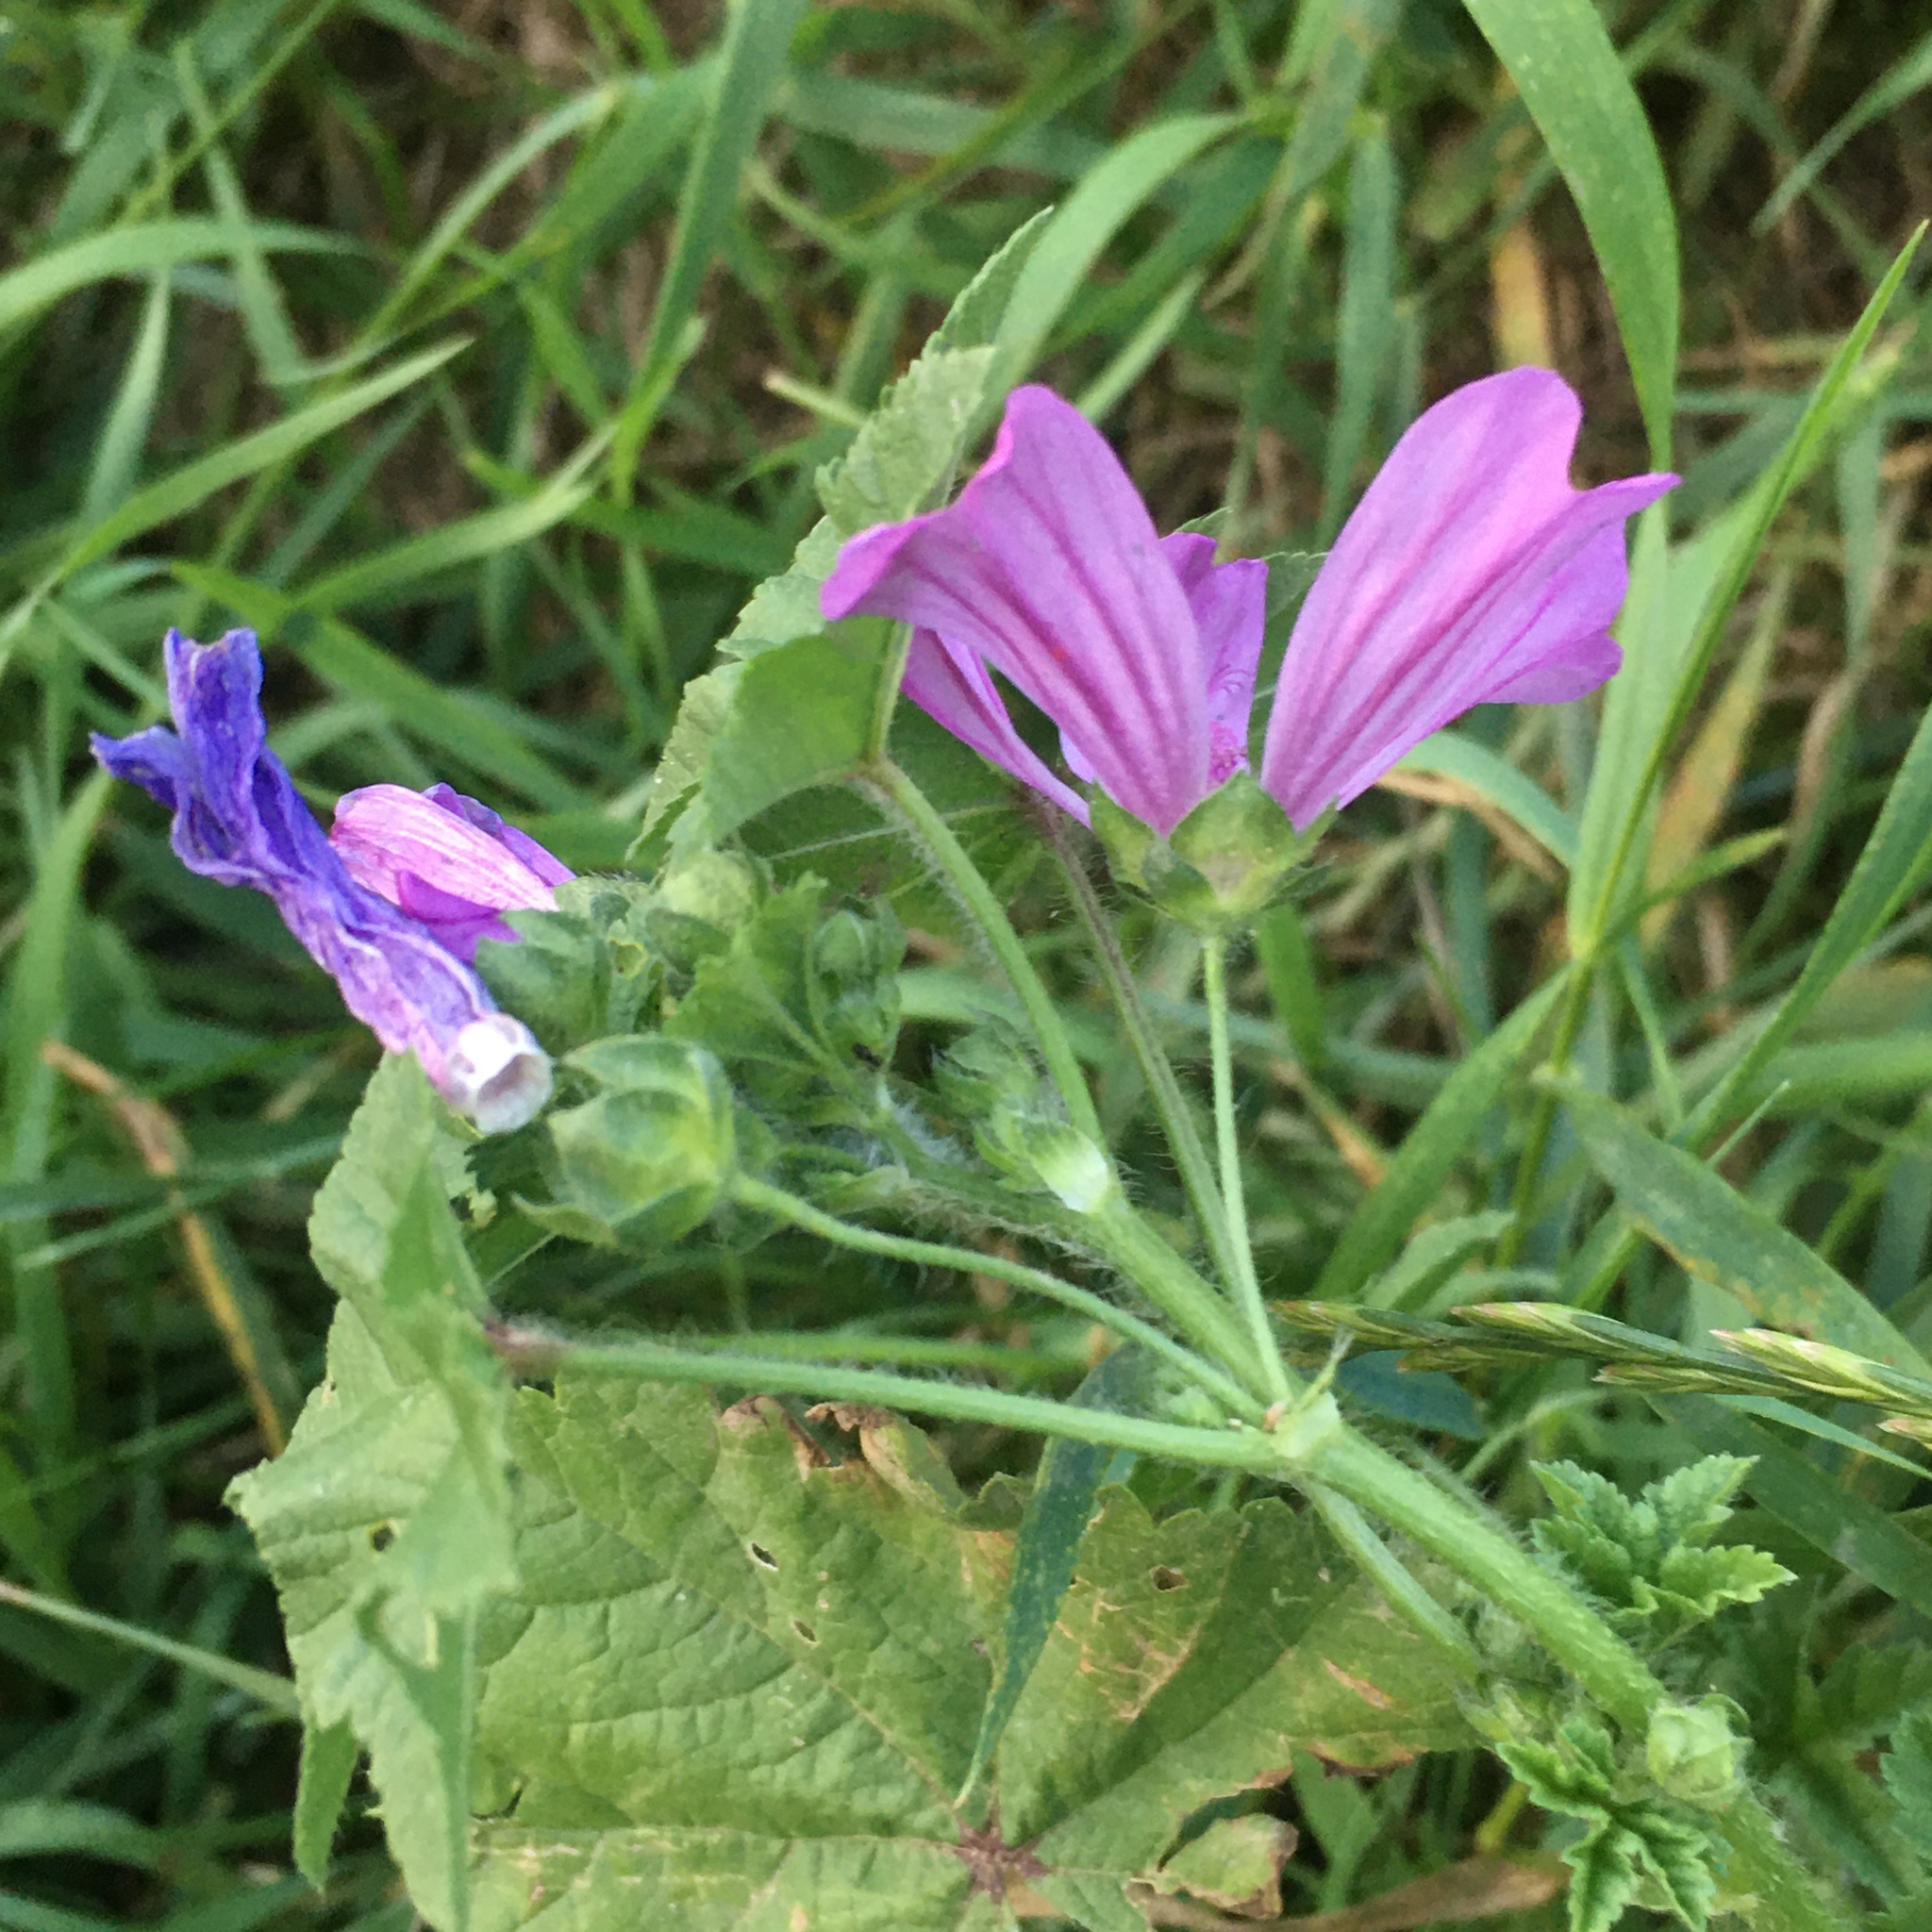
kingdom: Plantae
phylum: Tracheophyta
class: Magnoliopsida
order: Malvales
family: Malvaceae
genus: Malva
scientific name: Malva sylvestris
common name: Common mallow
